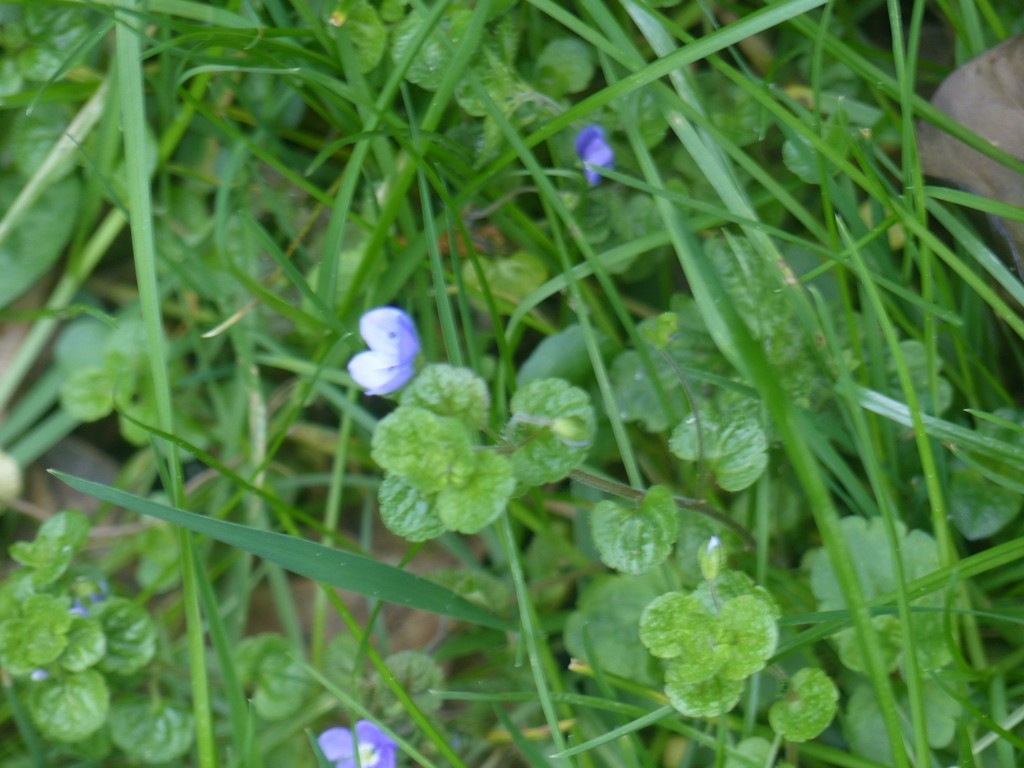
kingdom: Plantae
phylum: Tracheophyta
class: Magnoliopsida
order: Lamiales
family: Plantaginaceae
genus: Veronica
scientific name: Veronica filiformis
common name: Slender speedwell
